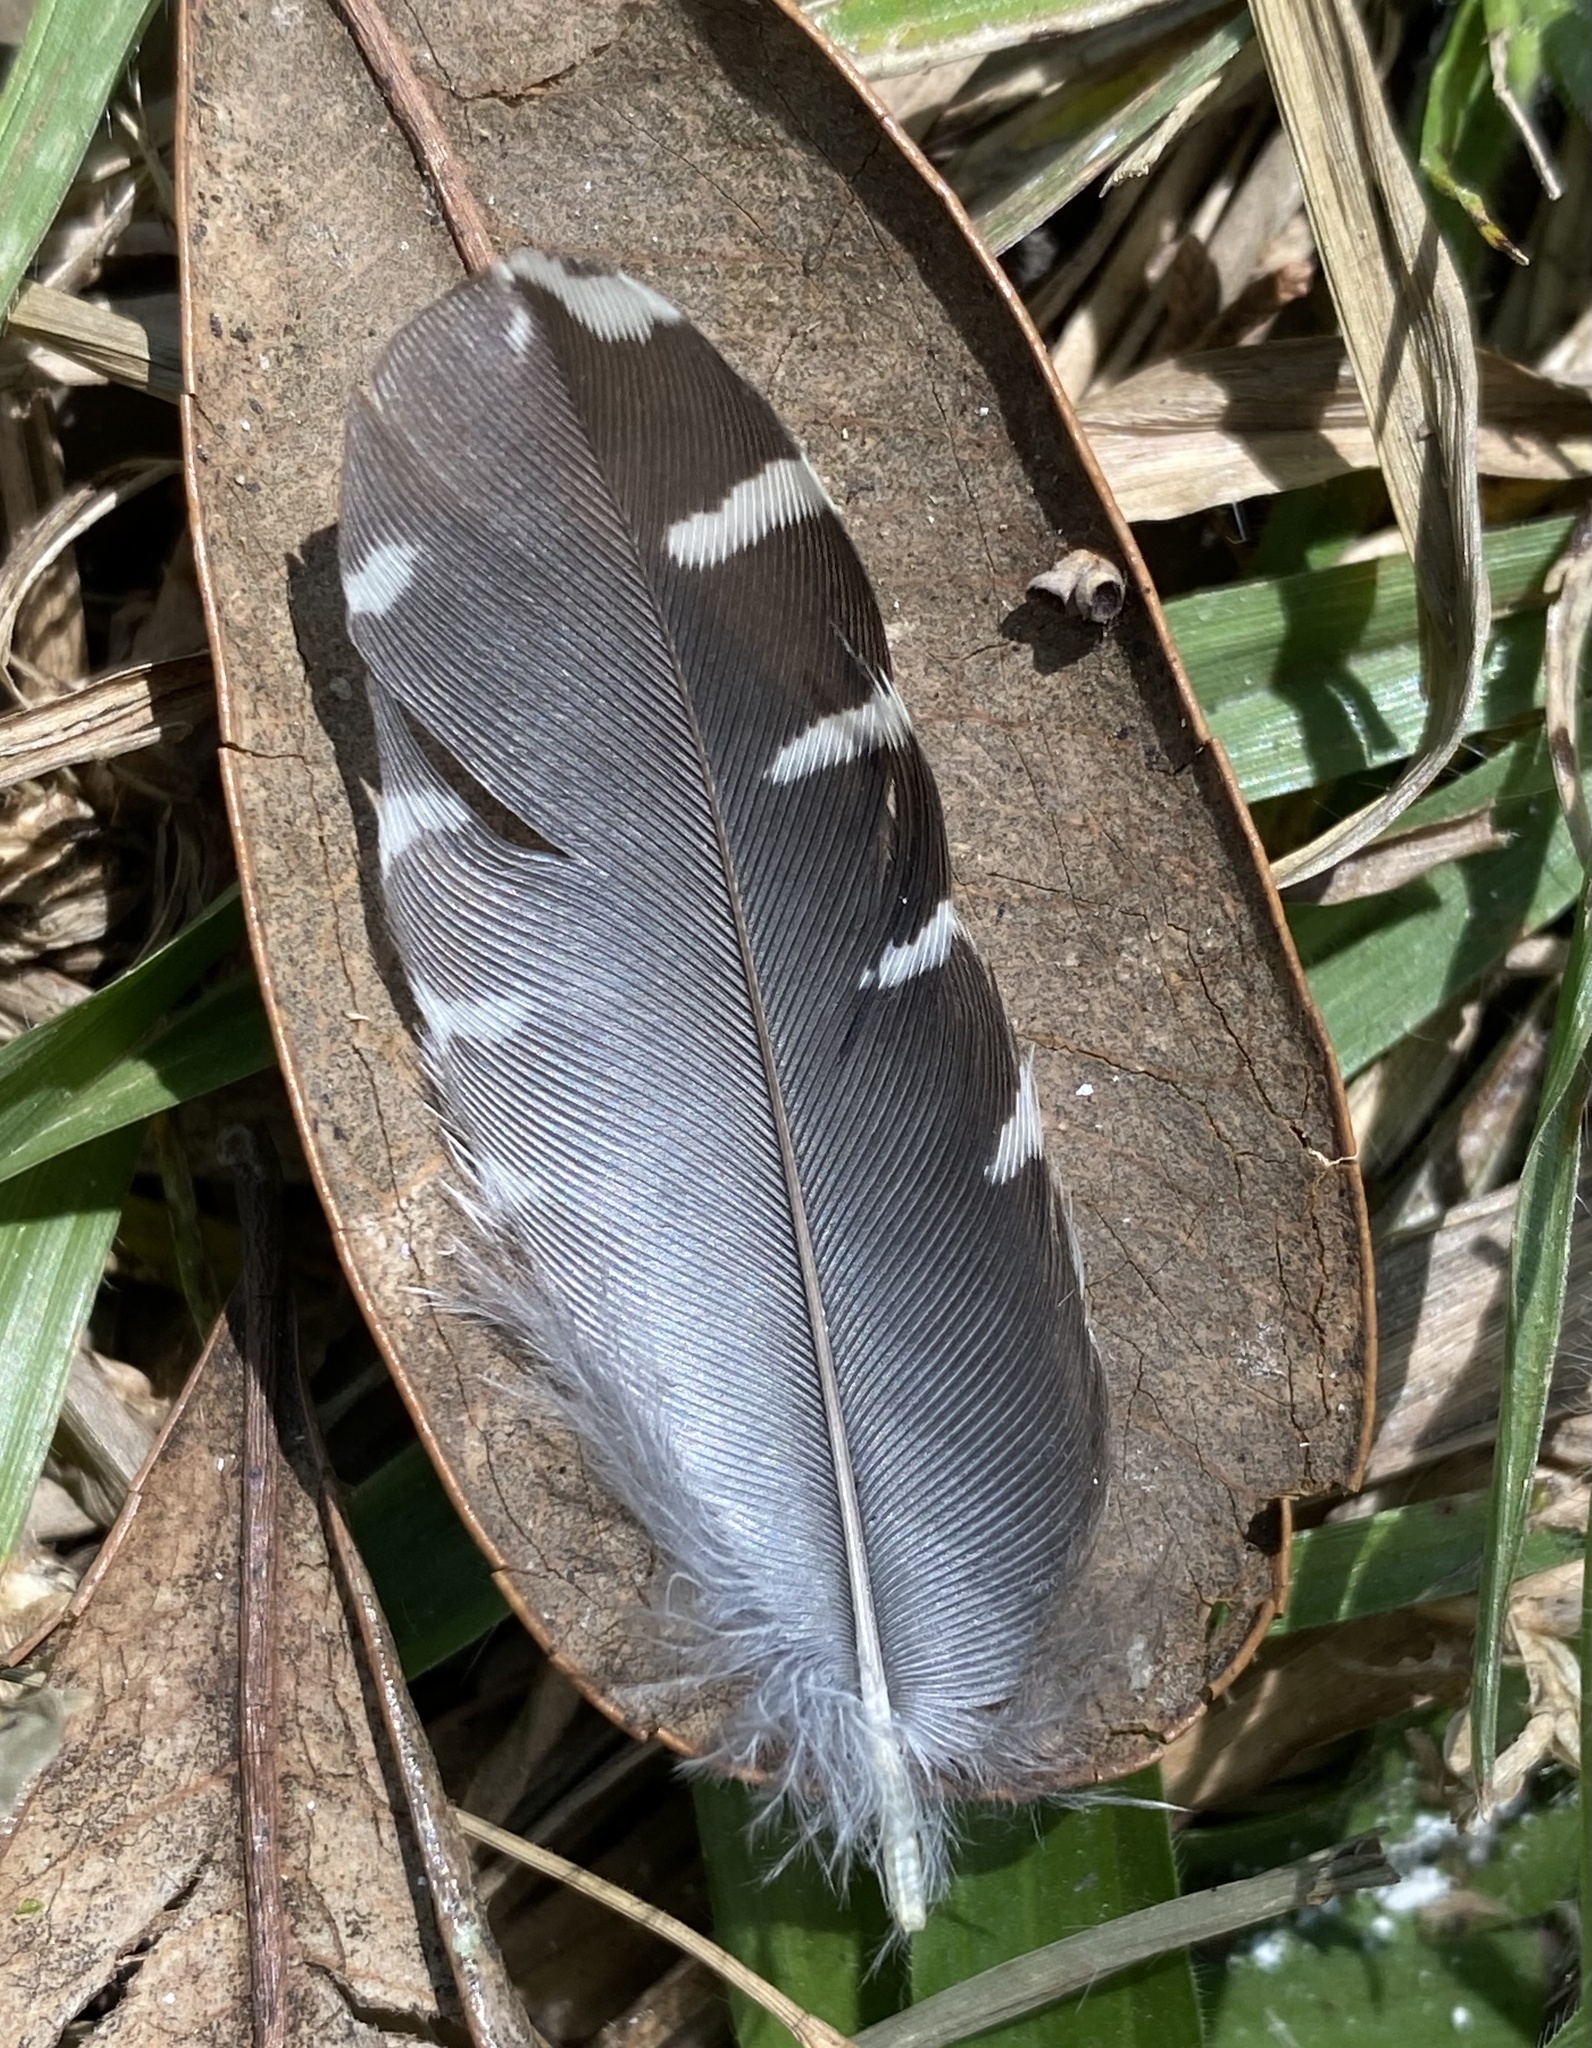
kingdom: Animalia
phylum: Chordata
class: Aves
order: Piciformes
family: Picidae
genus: Melanerpes
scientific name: Melanerpes aurifrons
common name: Golden-fronted woodpecker
